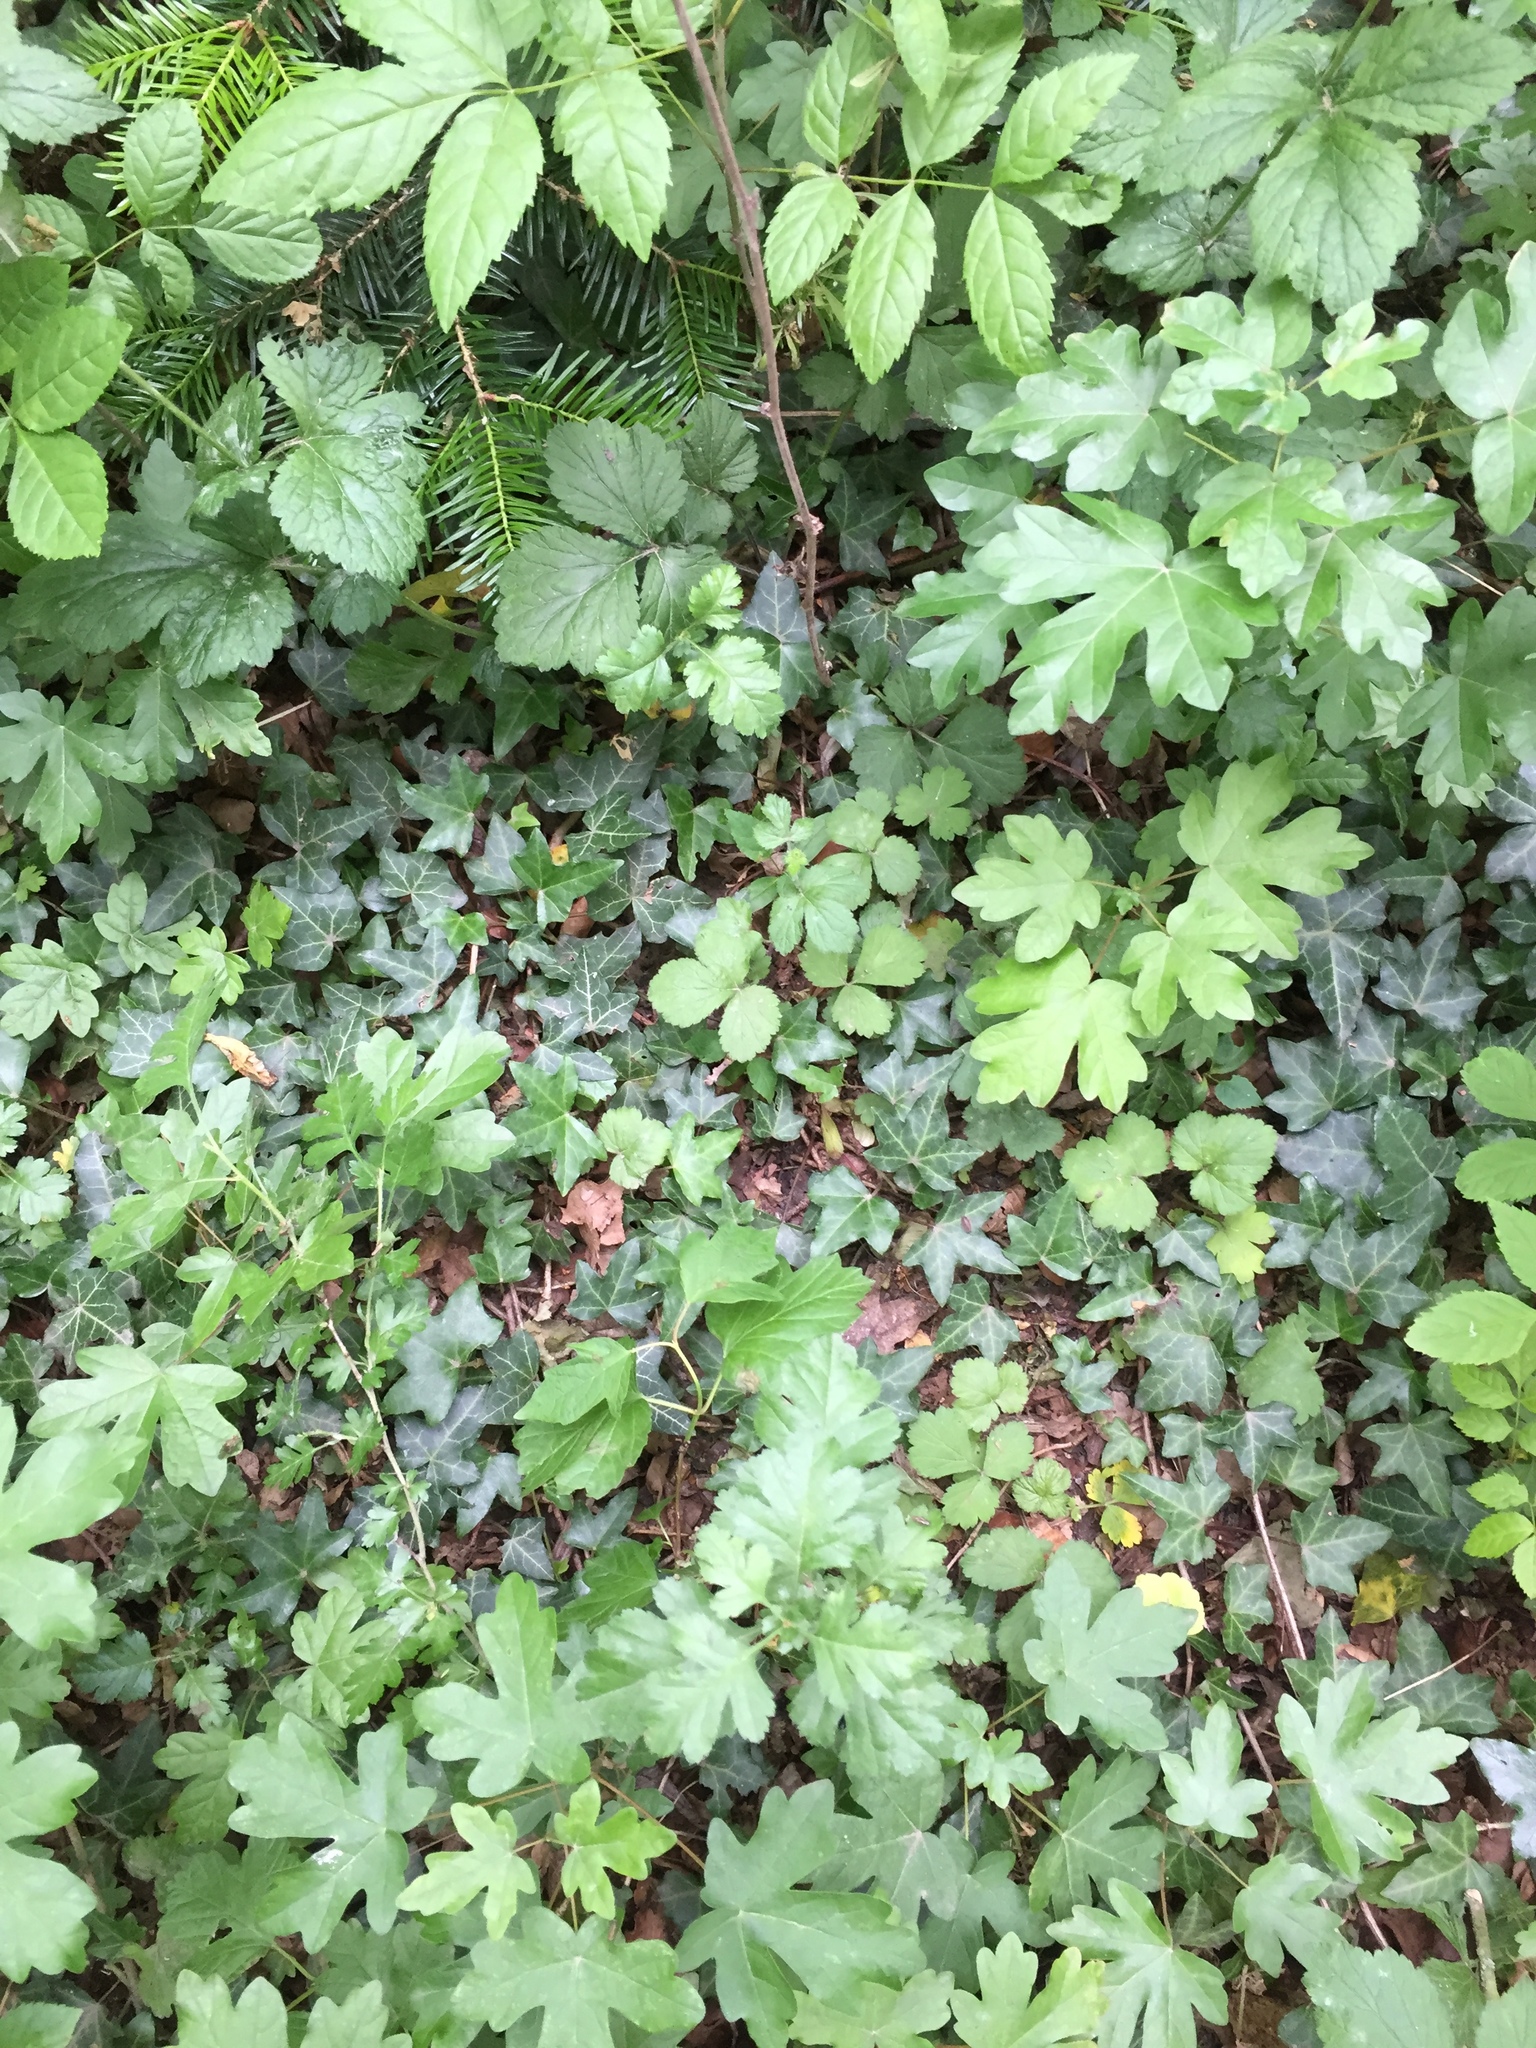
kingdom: Plantae
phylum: Tracheophyta
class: Magnoliopsida
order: Sapindales
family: Sapindaceae
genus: Acer
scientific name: Acer campestre
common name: Field maple
